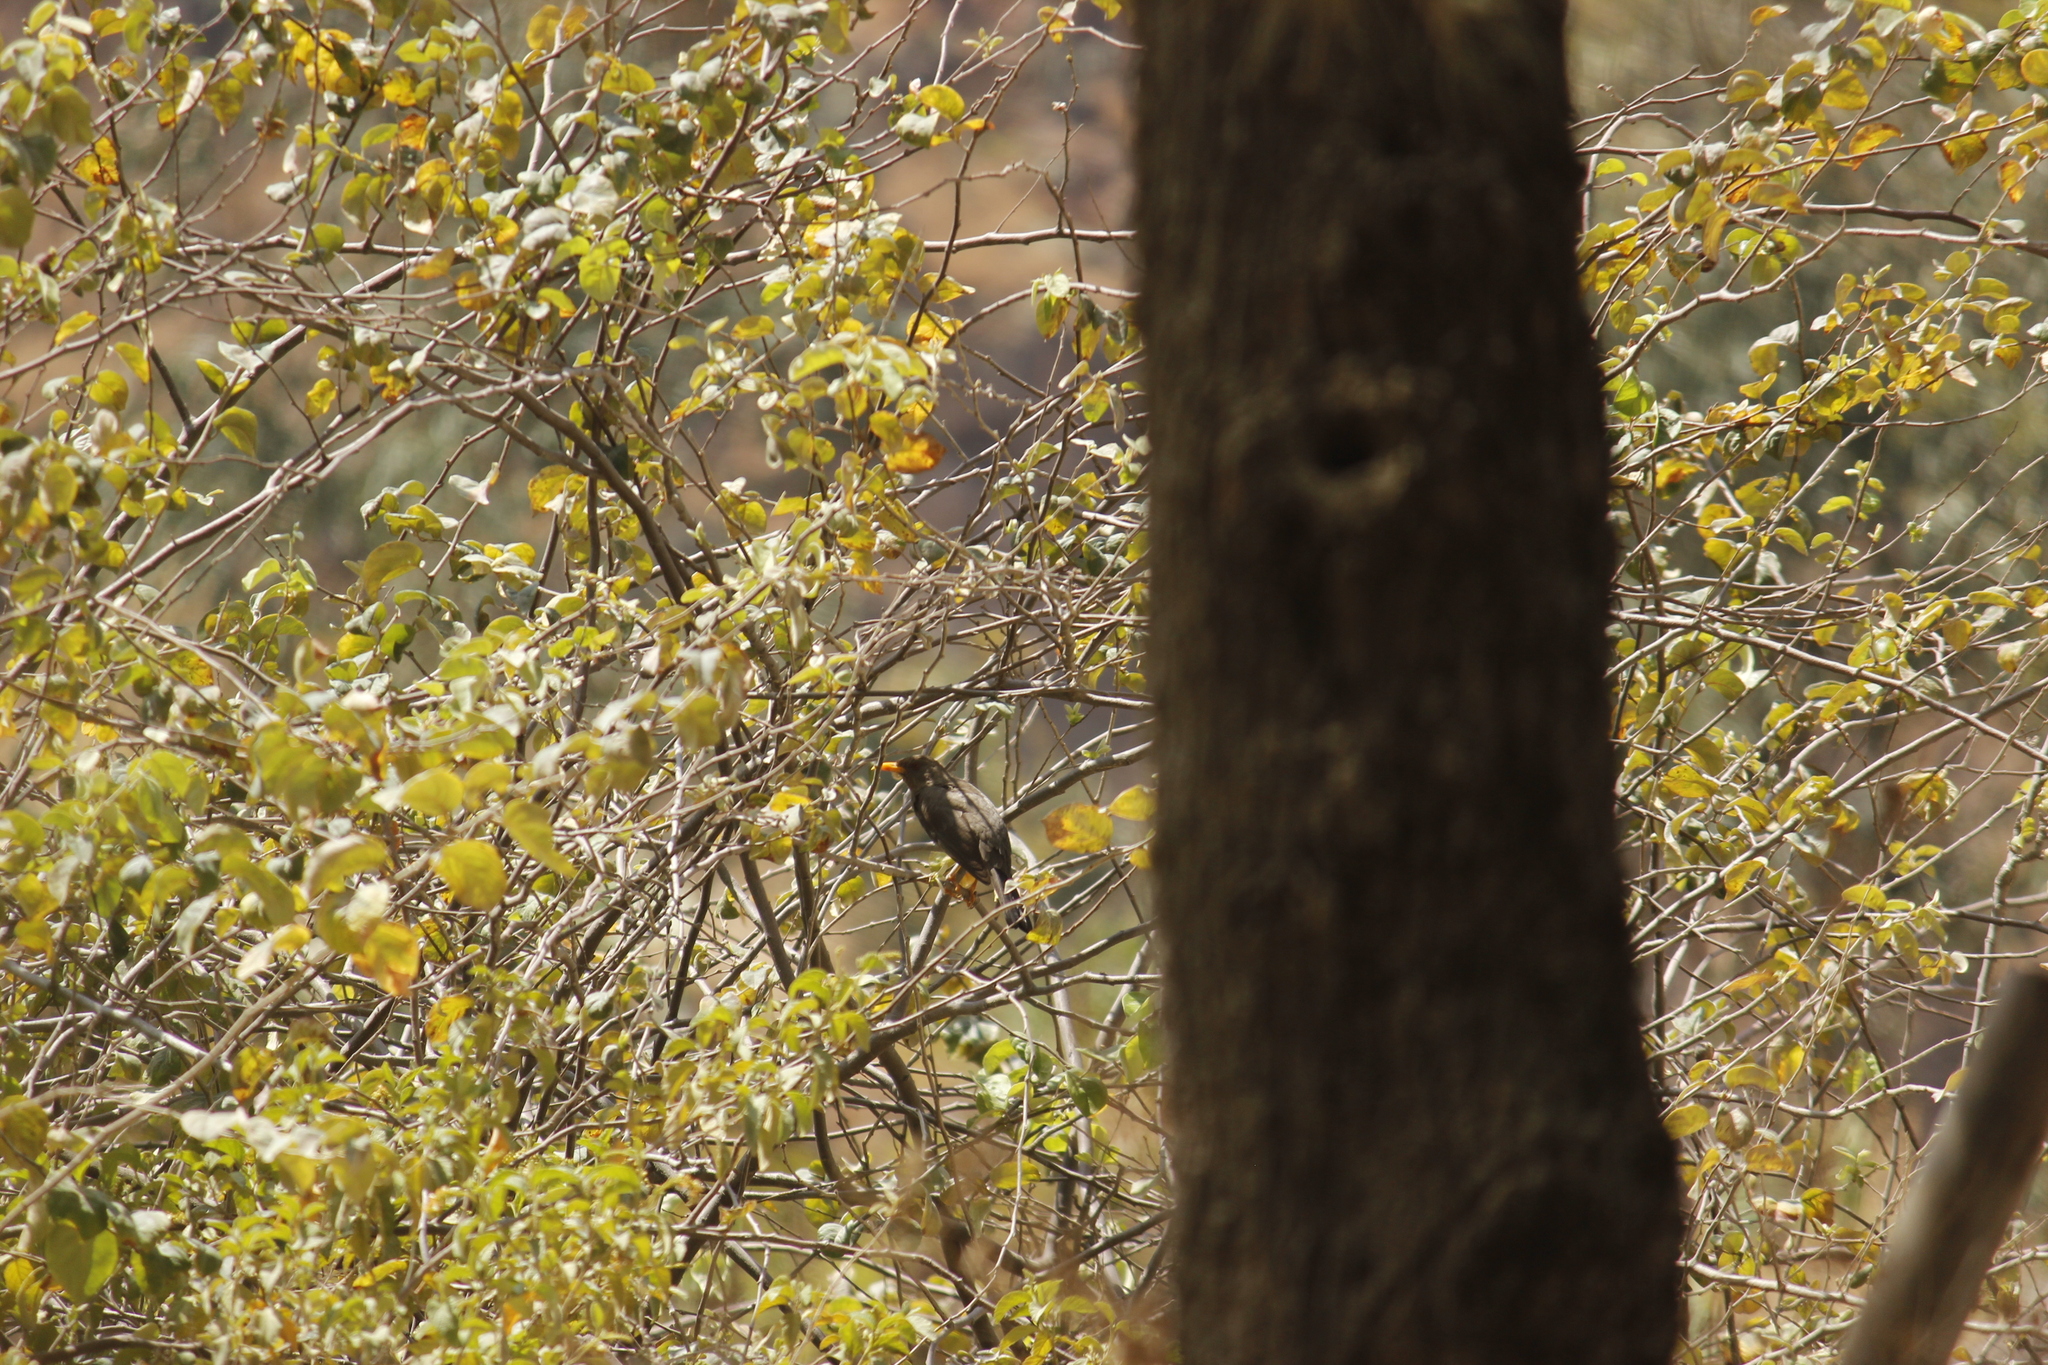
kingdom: Animalia
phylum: Chordata
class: Aves
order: Passeriformes
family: Turdidae
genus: Turdus
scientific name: Turdus chiguanco
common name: Chiguanco thrush
